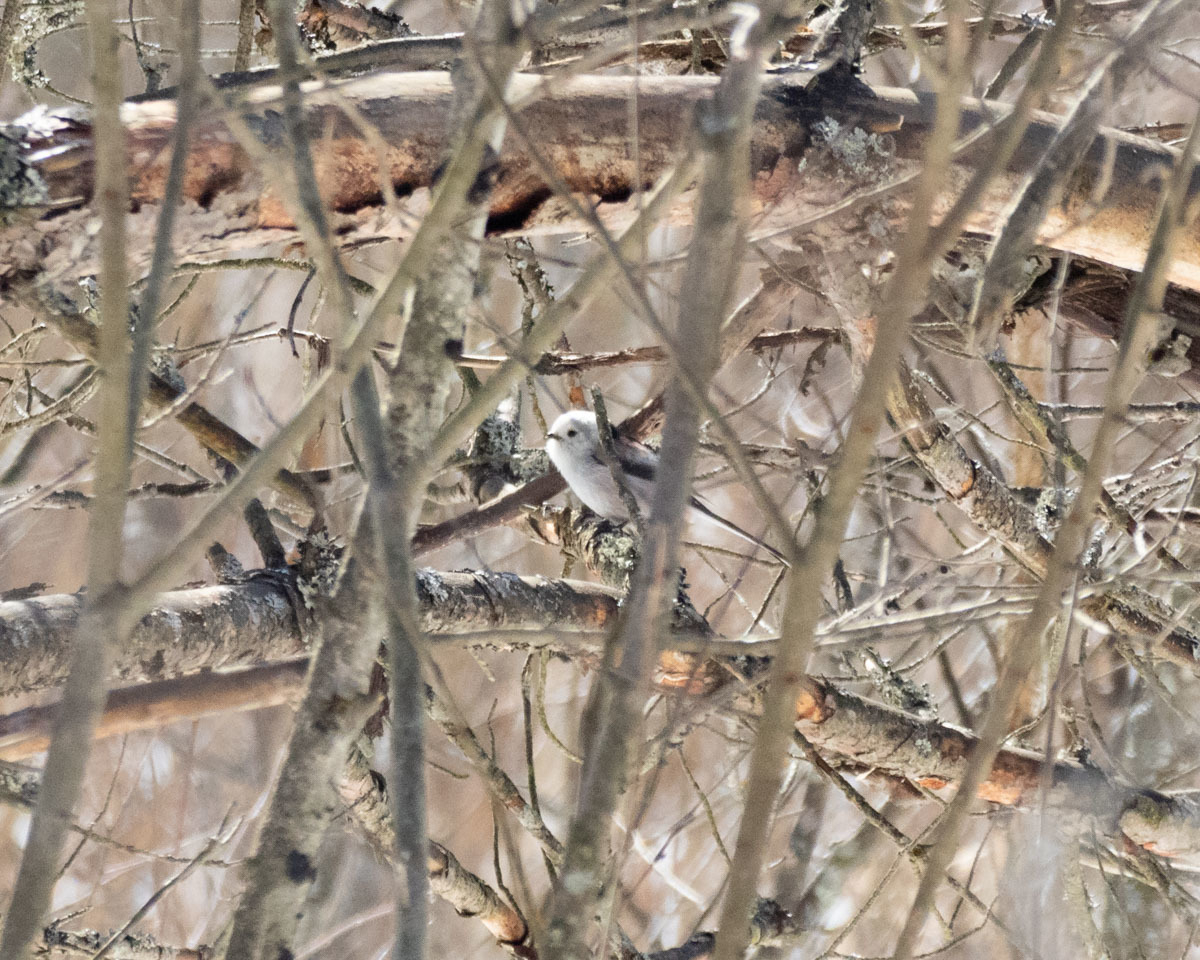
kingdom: Animalia
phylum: Chordata
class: Aves
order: Passeriformes
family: Aegithalidae
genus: Aegithalos
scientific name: Aegithalos caudatus
